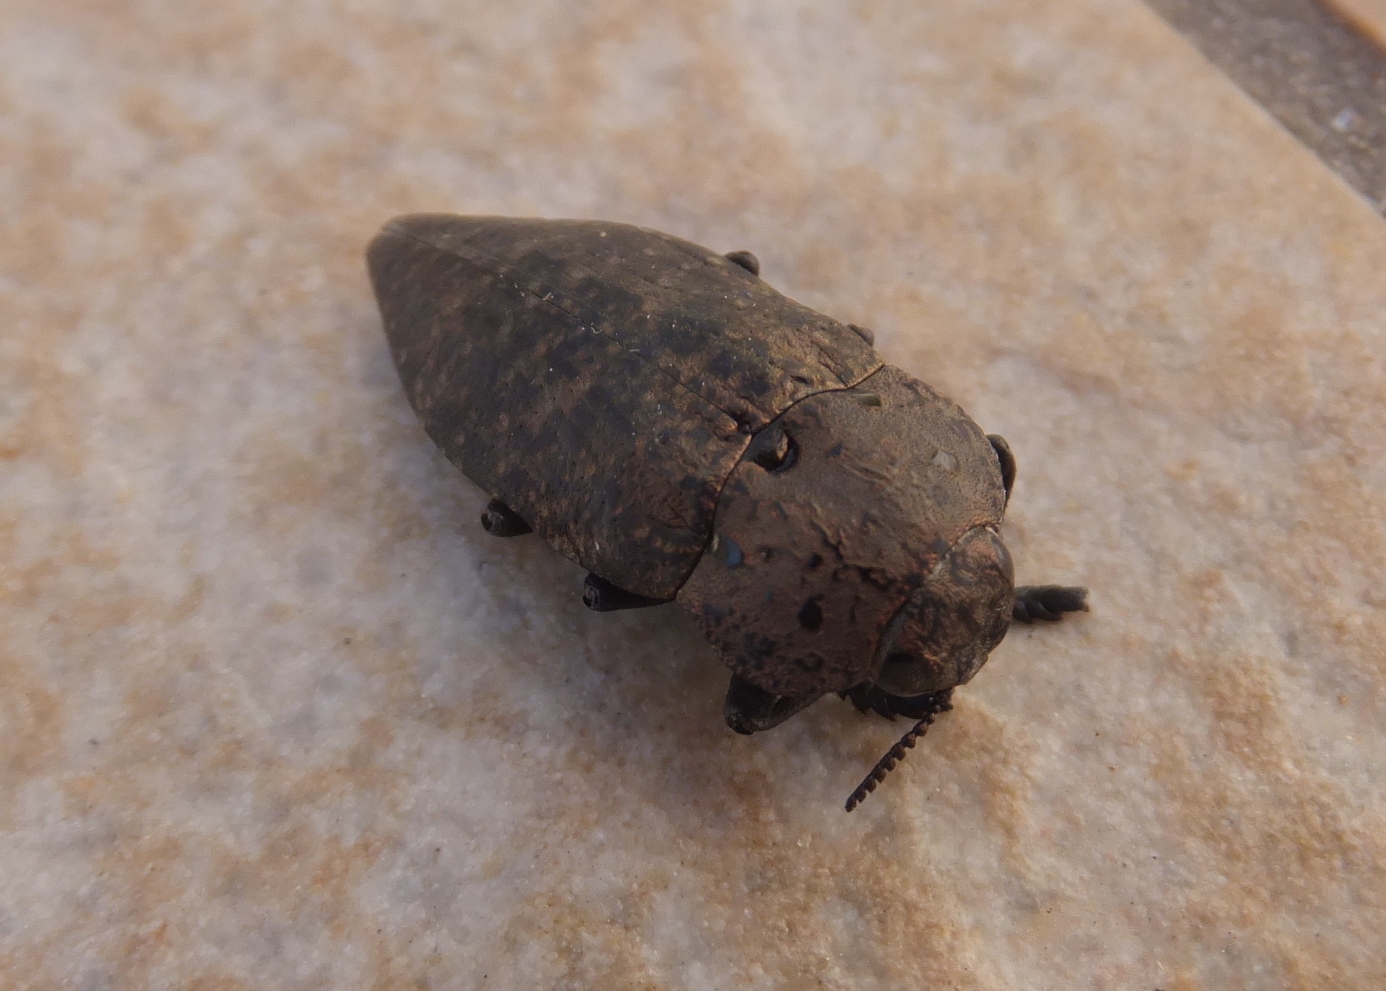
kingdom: Animalia
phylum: Arthropoda
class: Insecta
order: Coleoptera
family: Buprestidae
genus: Capnodis
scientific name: Capnodis tenebricosa
